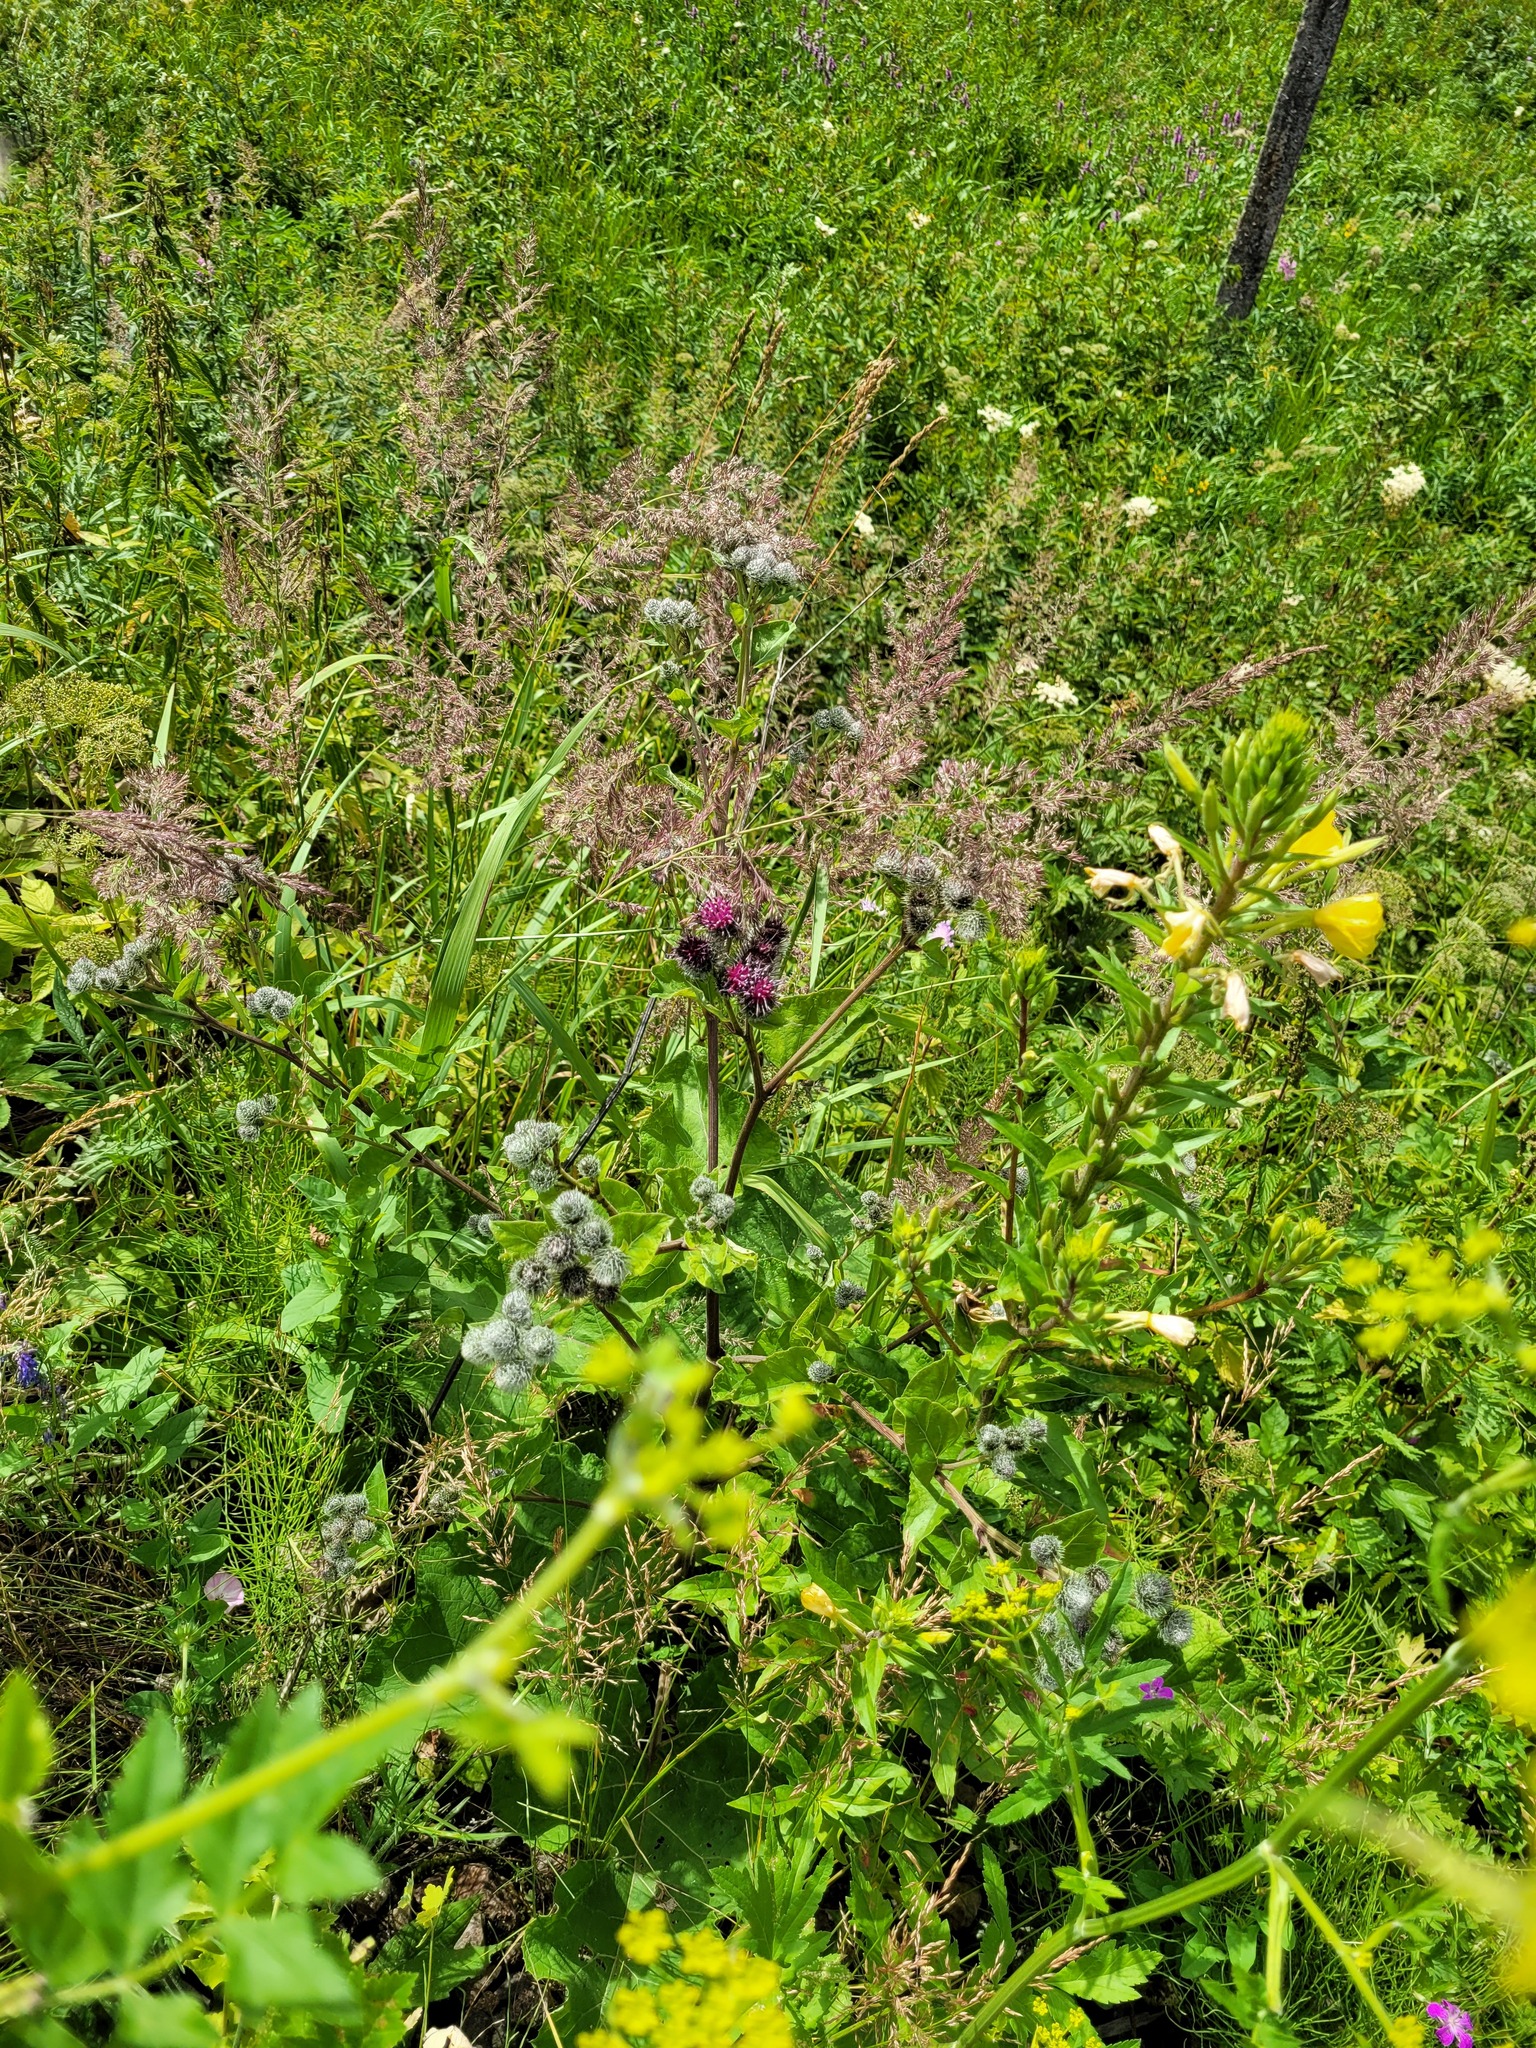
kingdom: Plantae
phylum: Tracheophyta
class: Magnoliopsida
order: Asterales
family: Asteraceae
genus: Arctium
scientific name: Arctium tomentosum
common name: Woolly burdock
